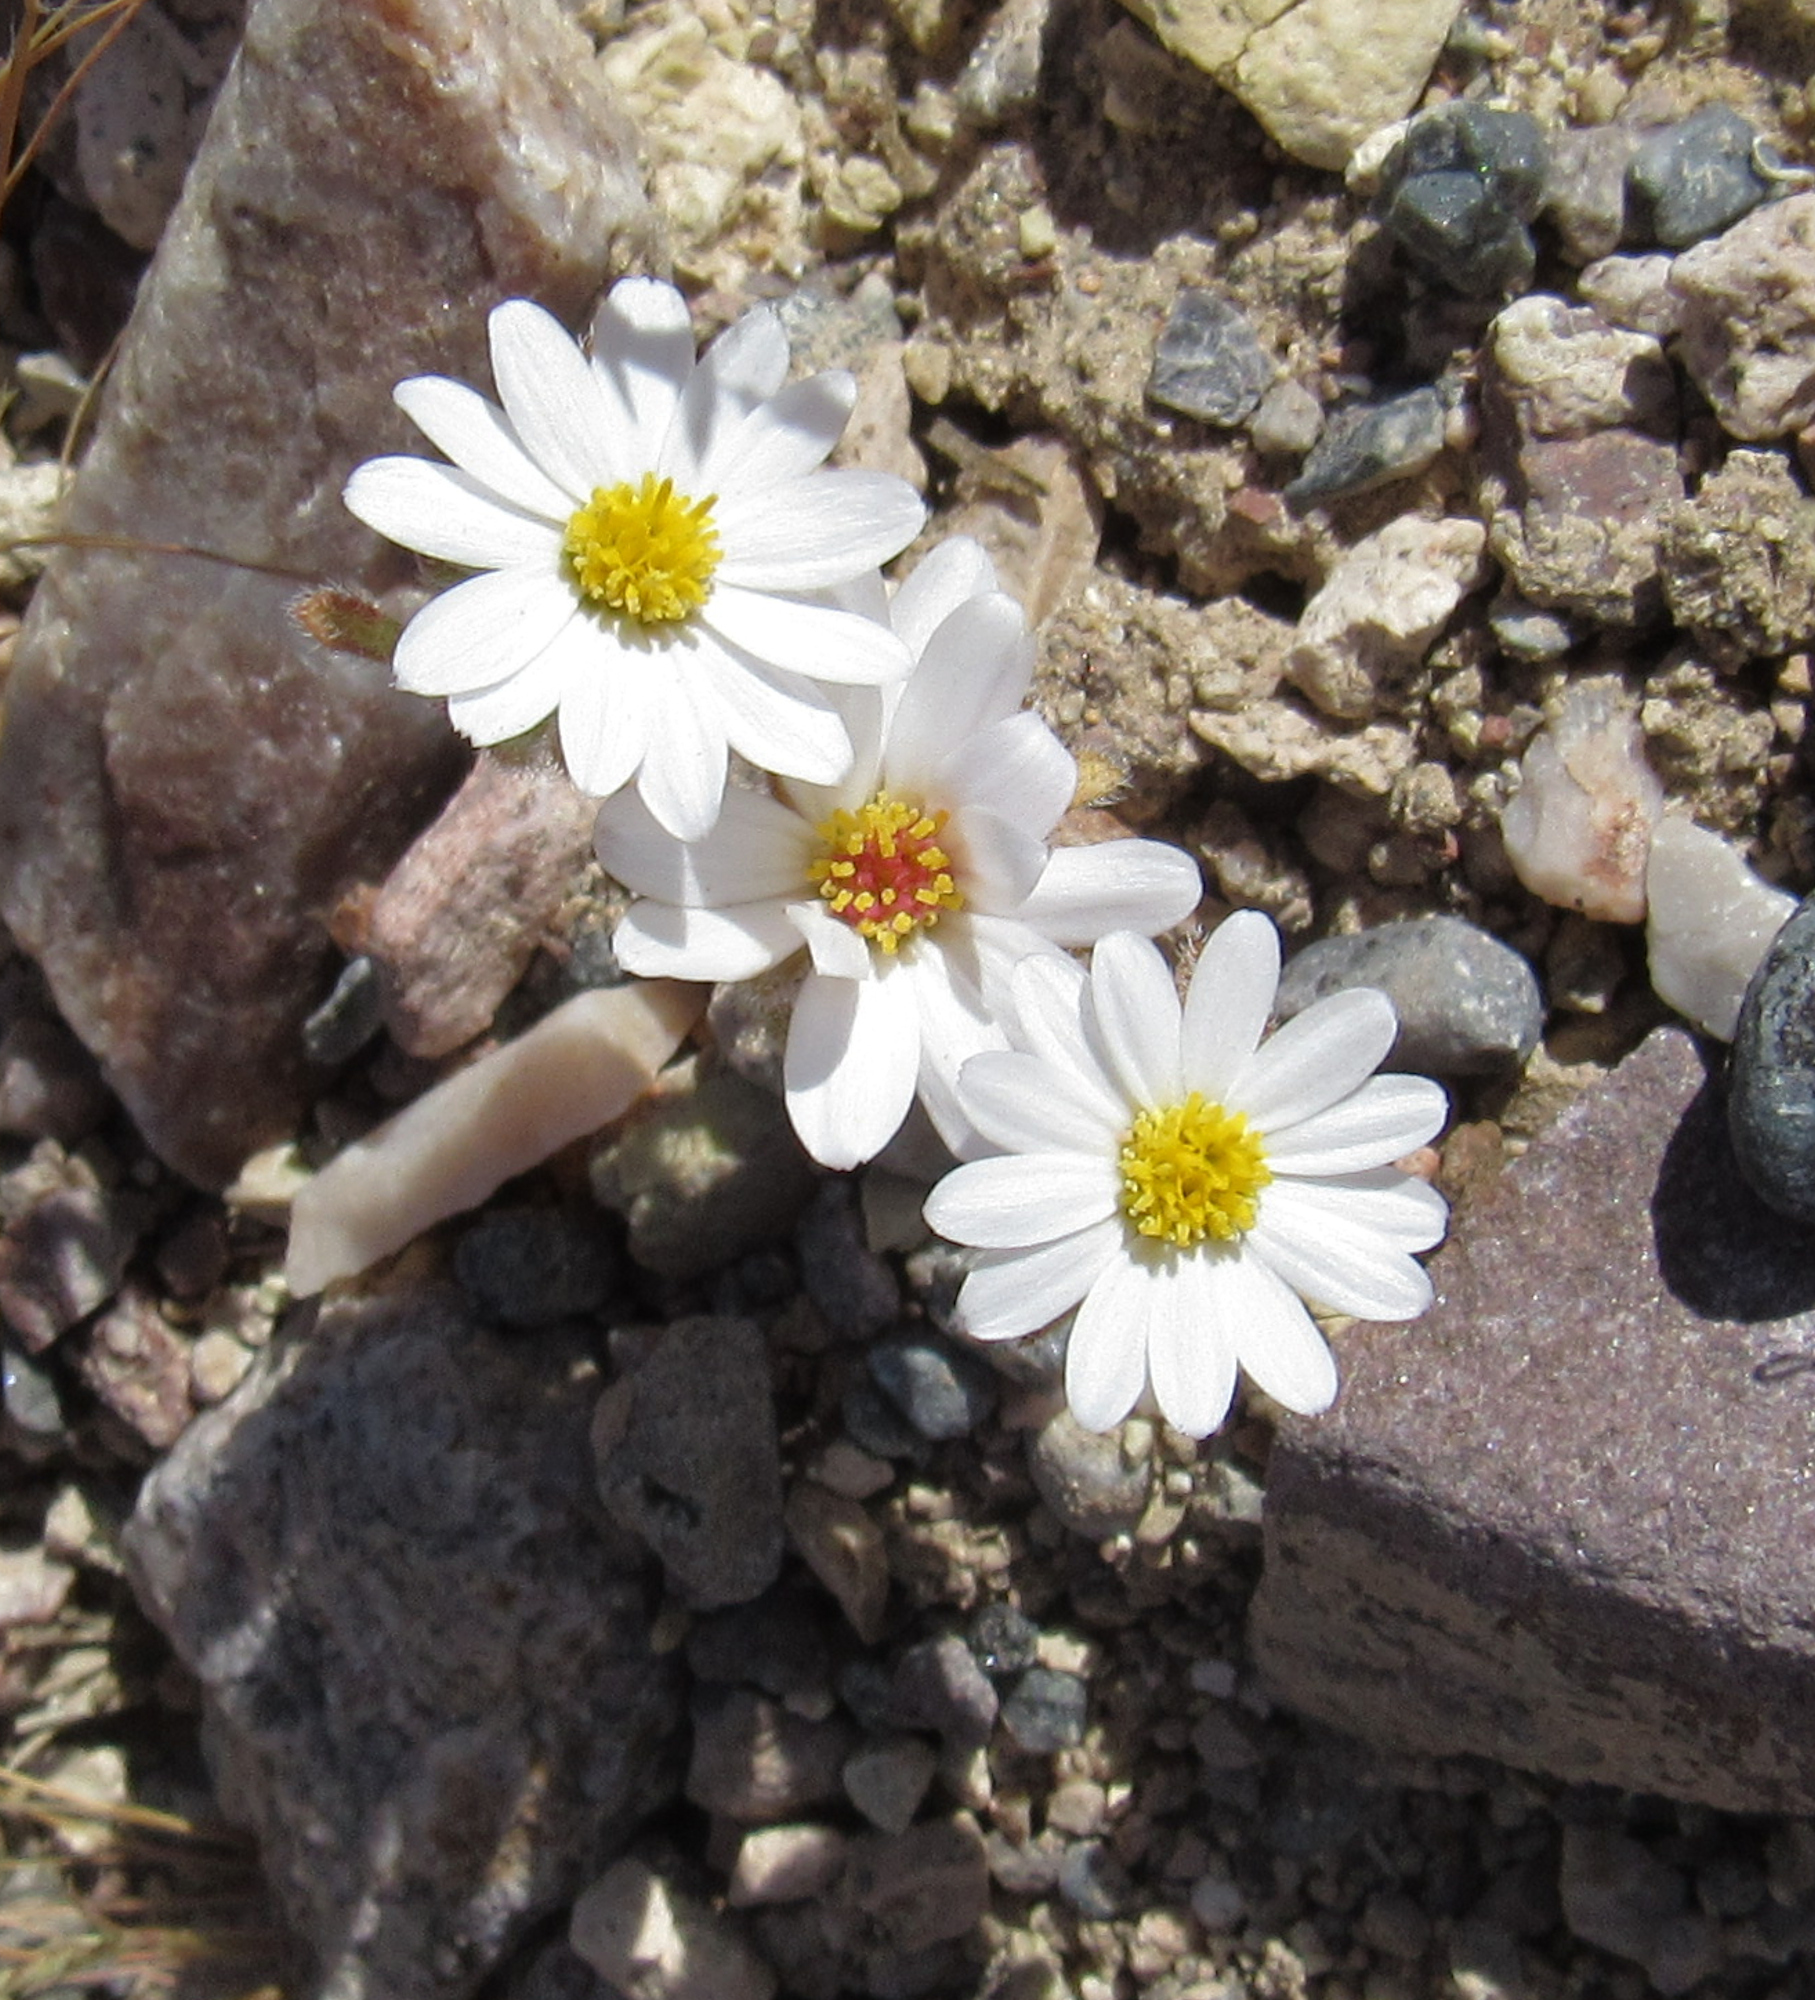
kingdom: Plantae
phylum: Tracheophyta
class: Magnoliopsida
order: Asterales
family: Asteraceae
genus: Monoptilon
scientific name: Monoptilon bellioides
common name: Bristly desertstar
